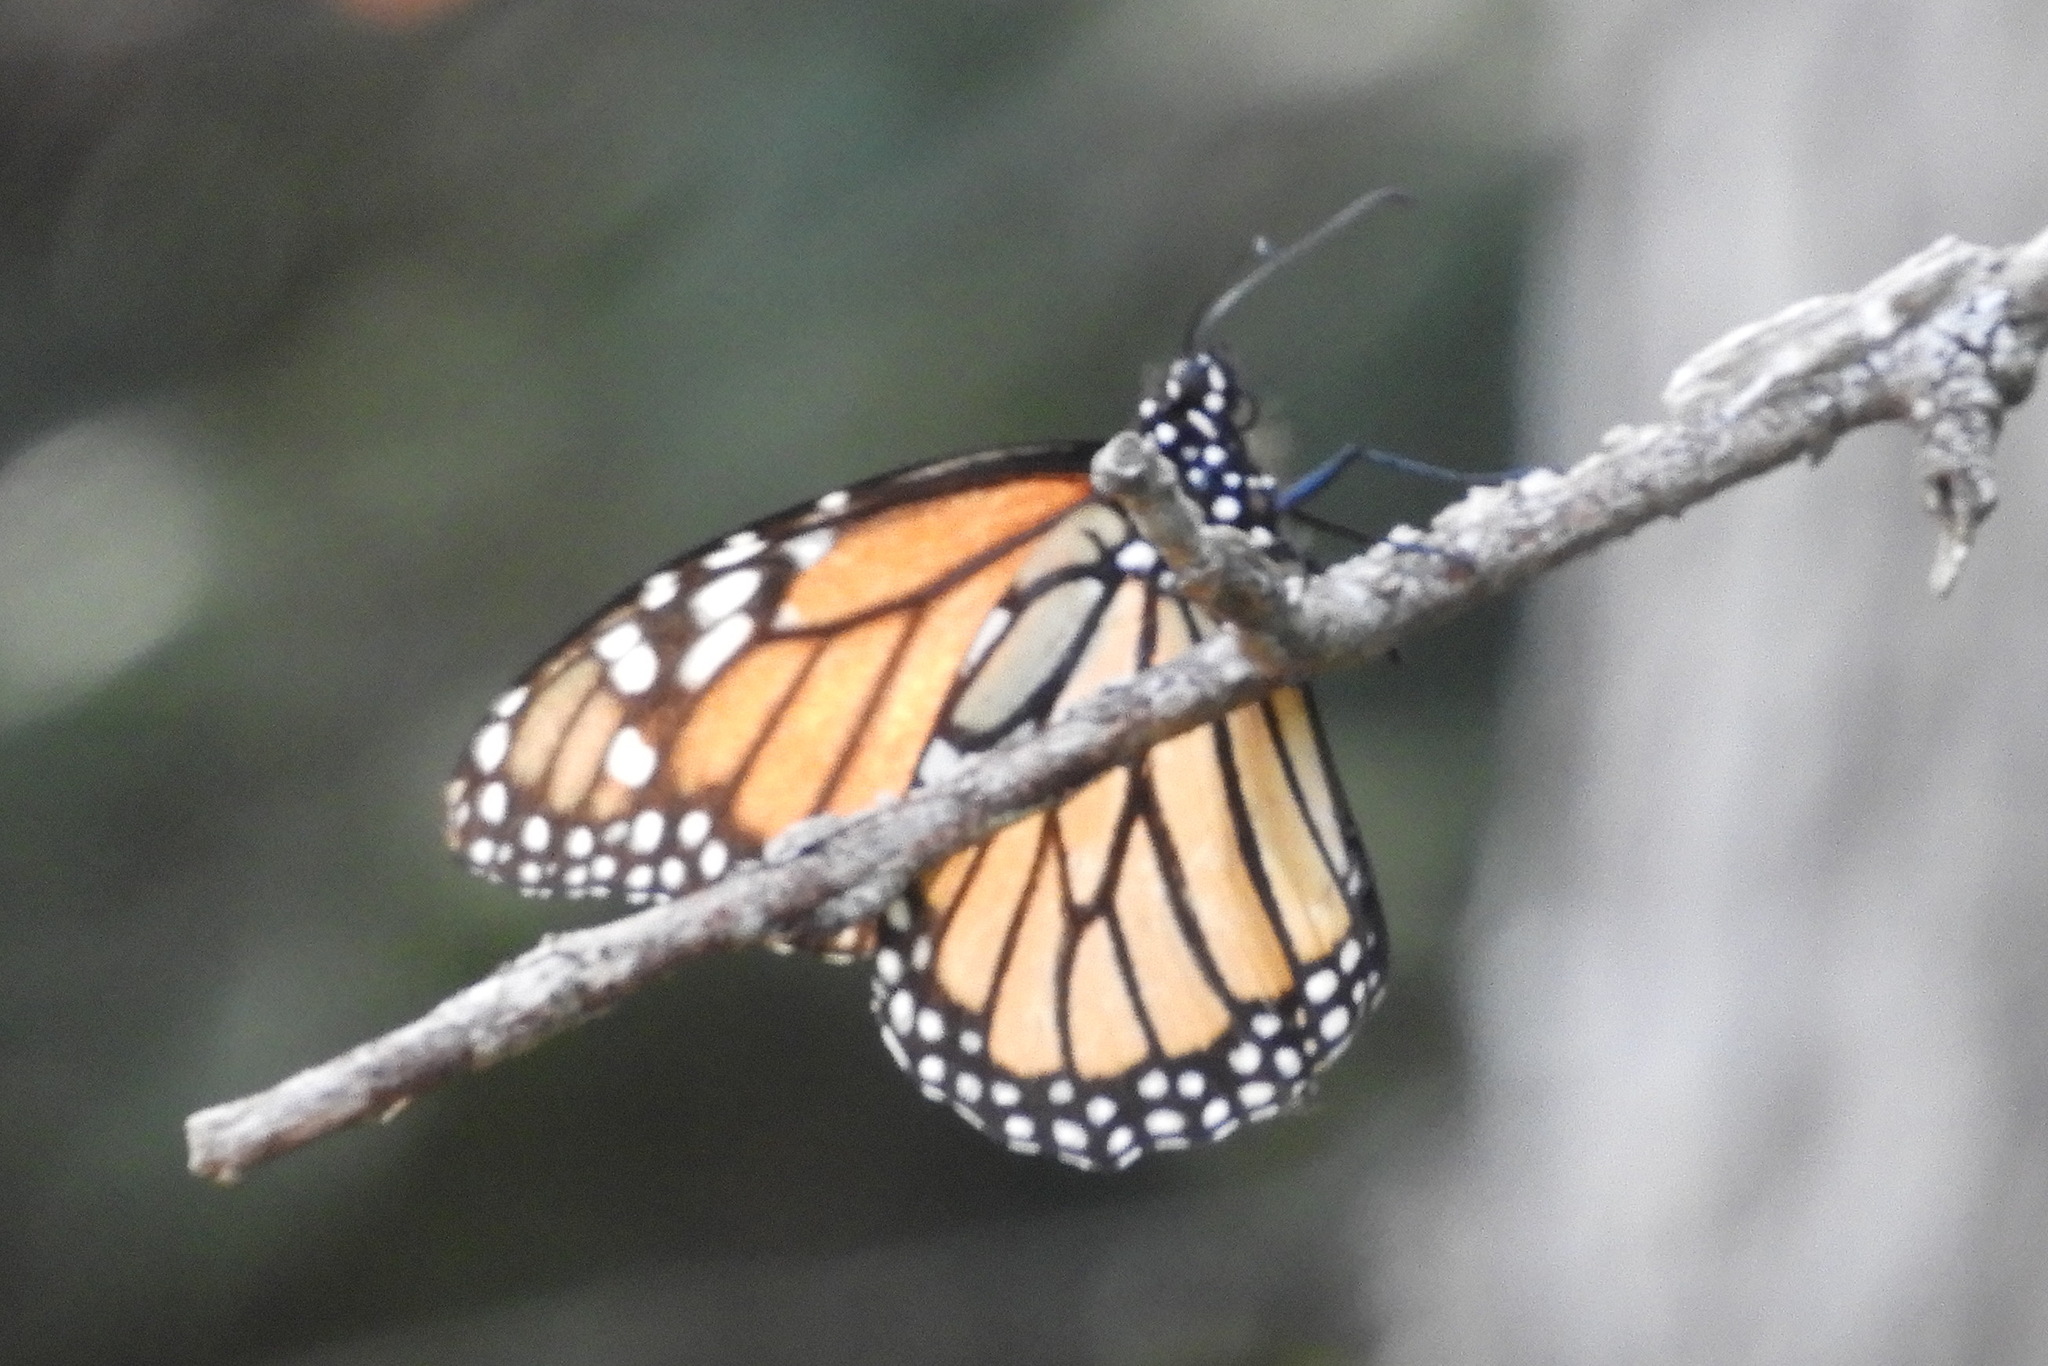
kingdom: Animalia
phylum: Arthropoda
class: Insecta
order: Lepidoptera
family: Nymphalidae
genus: Danaus
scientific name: Danaus plexippus
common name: Monarch
